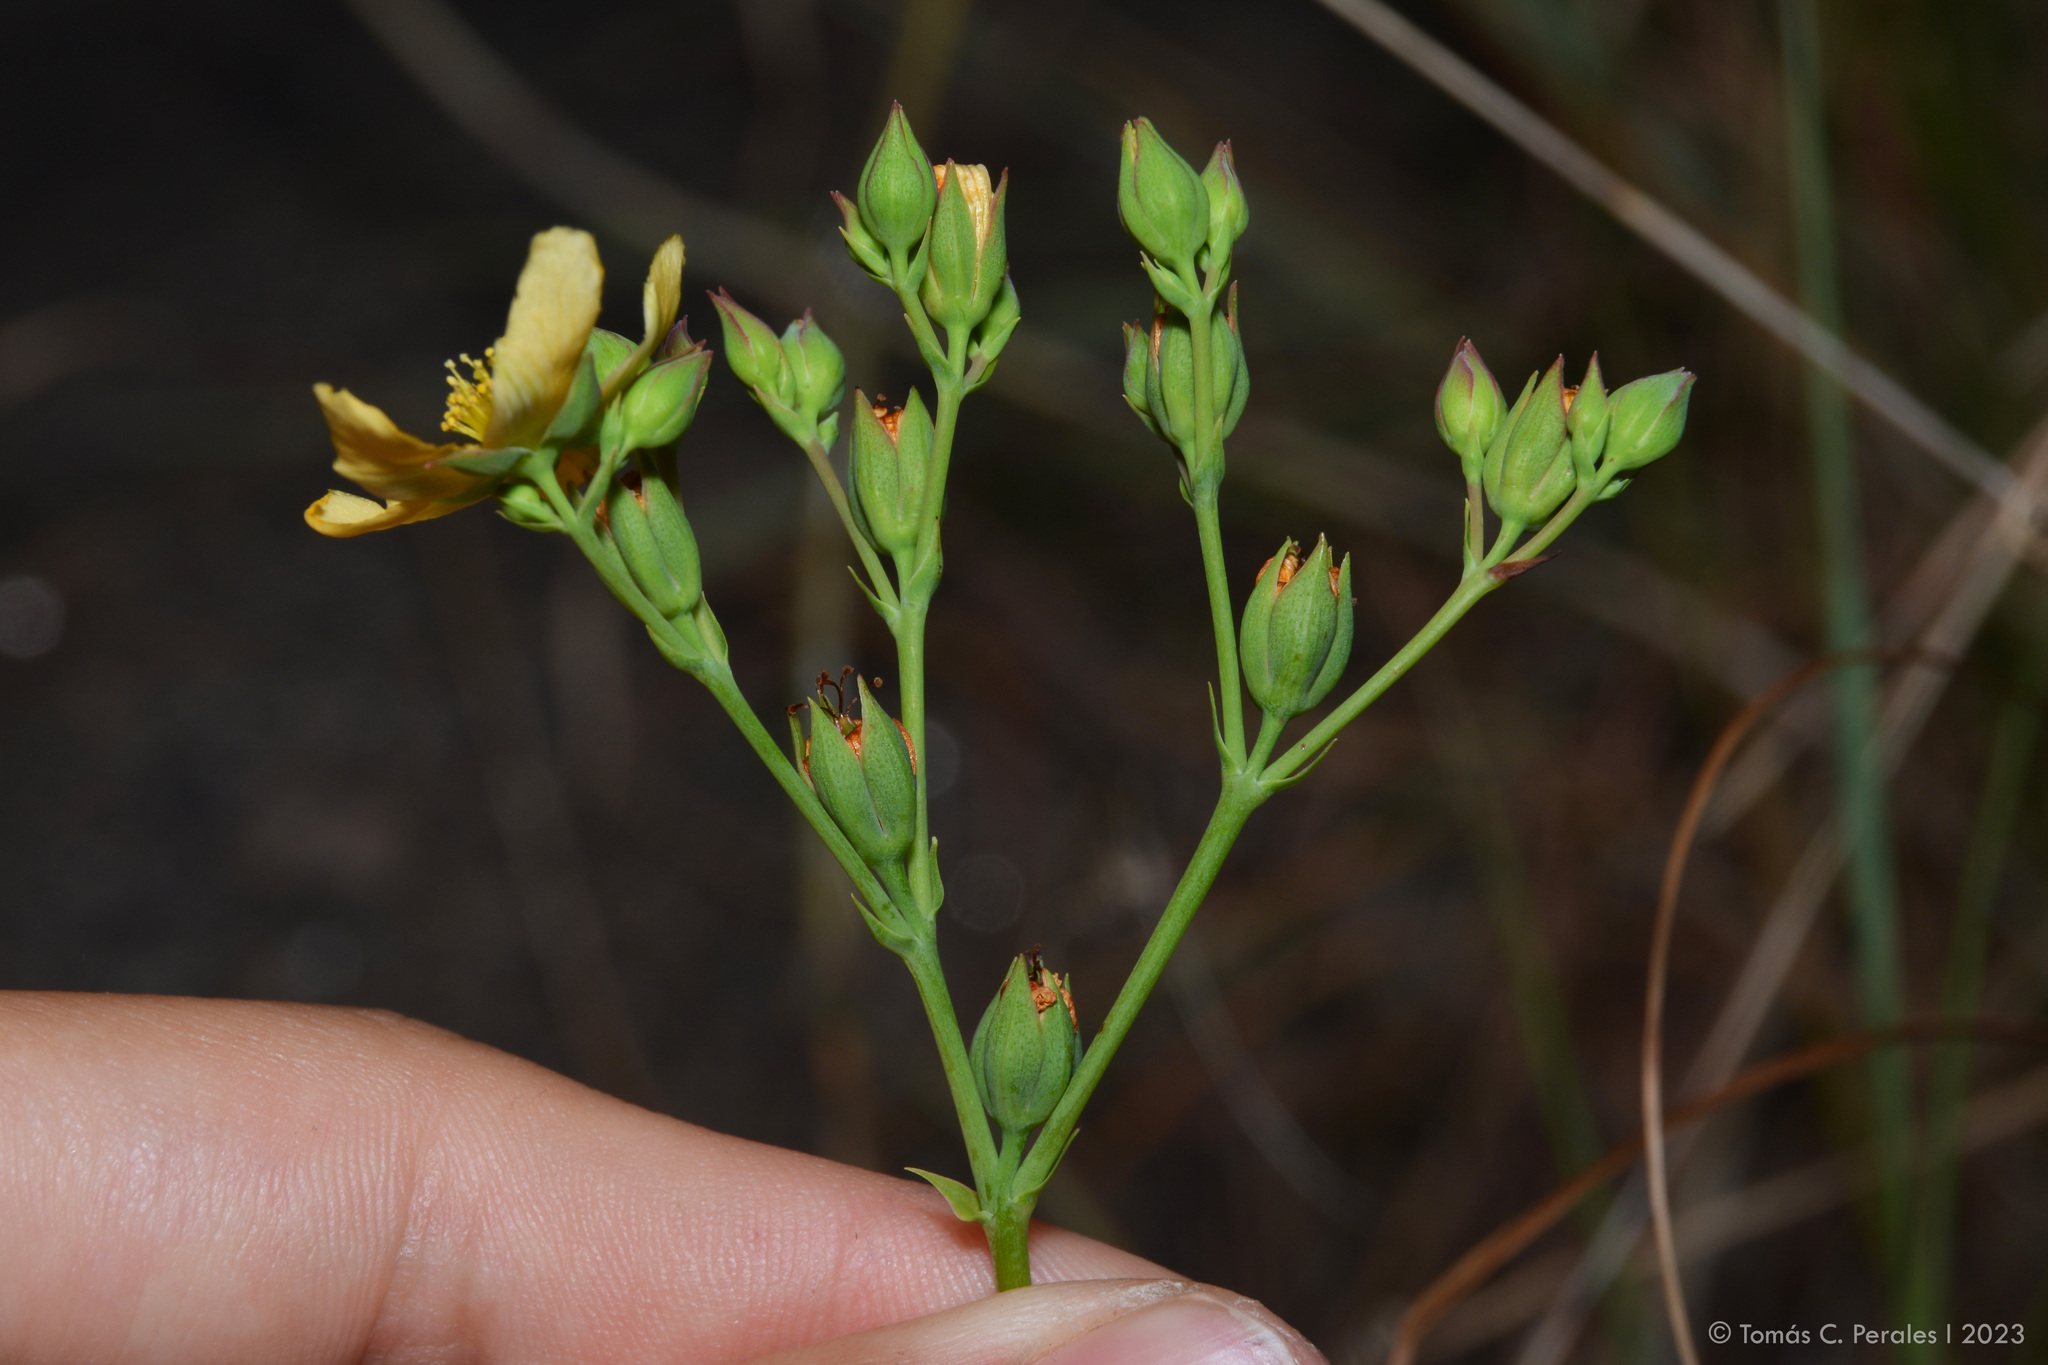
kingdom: Plantae
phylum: Tracheophyta
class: Magnoliopsida
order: Malpighiales
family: Hypericaceae
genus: Hypericum
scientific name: Hypericum connatum
